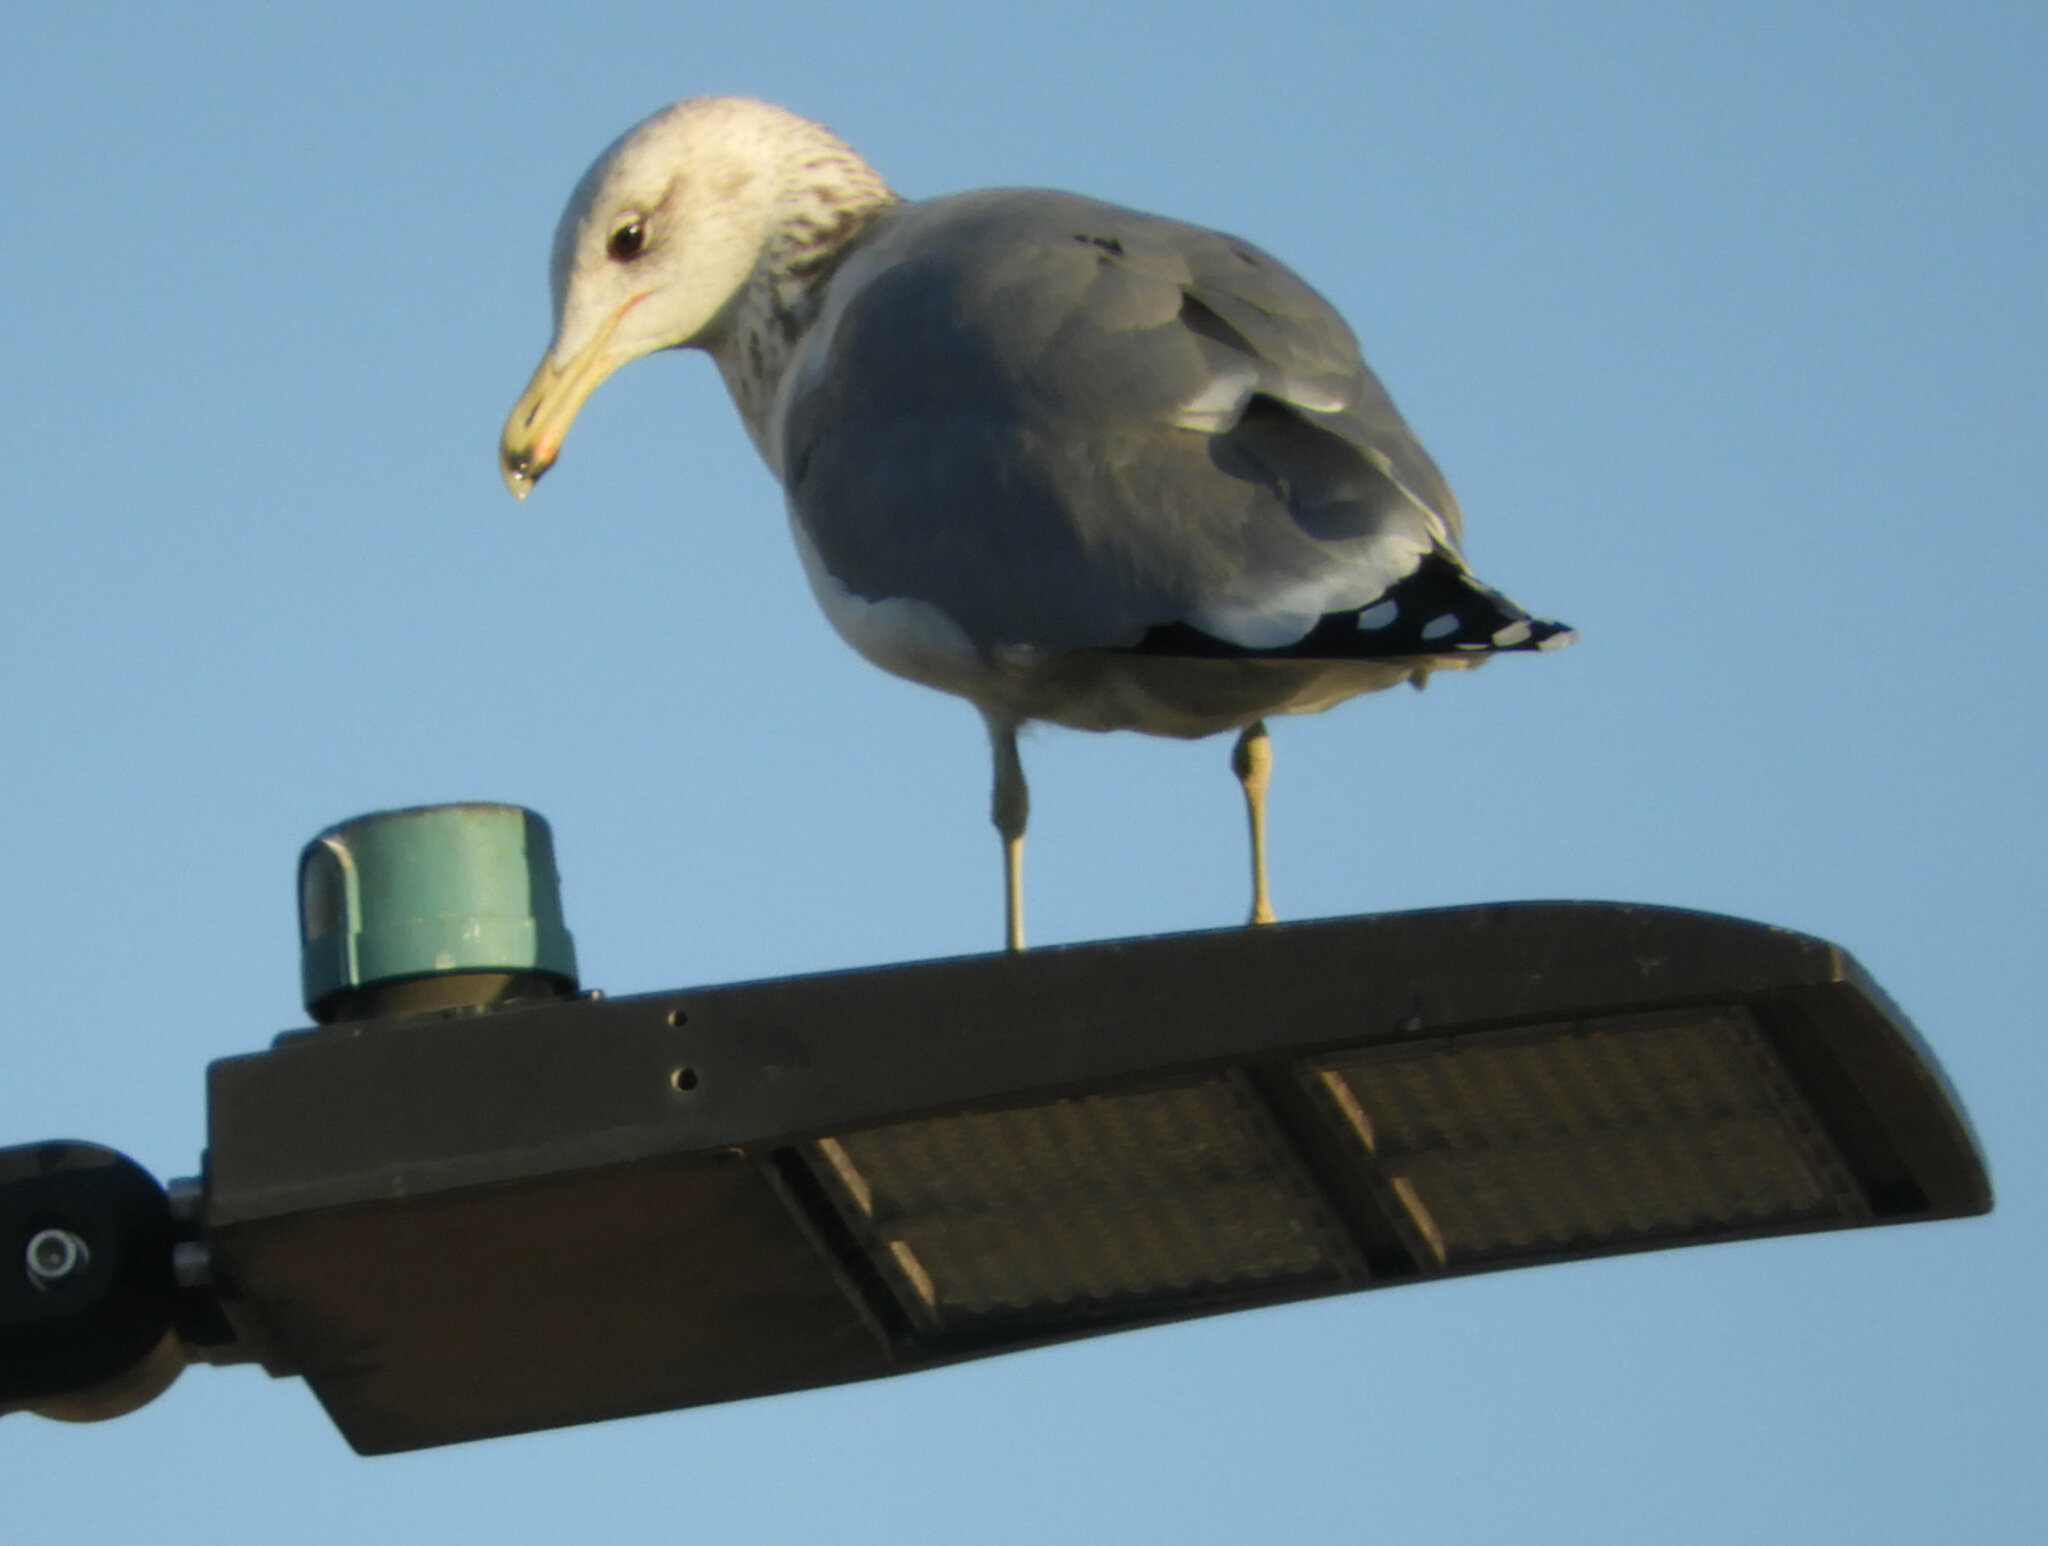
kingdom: Animalia
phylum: Chordata
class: Aves
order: Charadriiformes
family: Laridae
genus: Larus
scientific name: Larus californicus
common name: California gull
